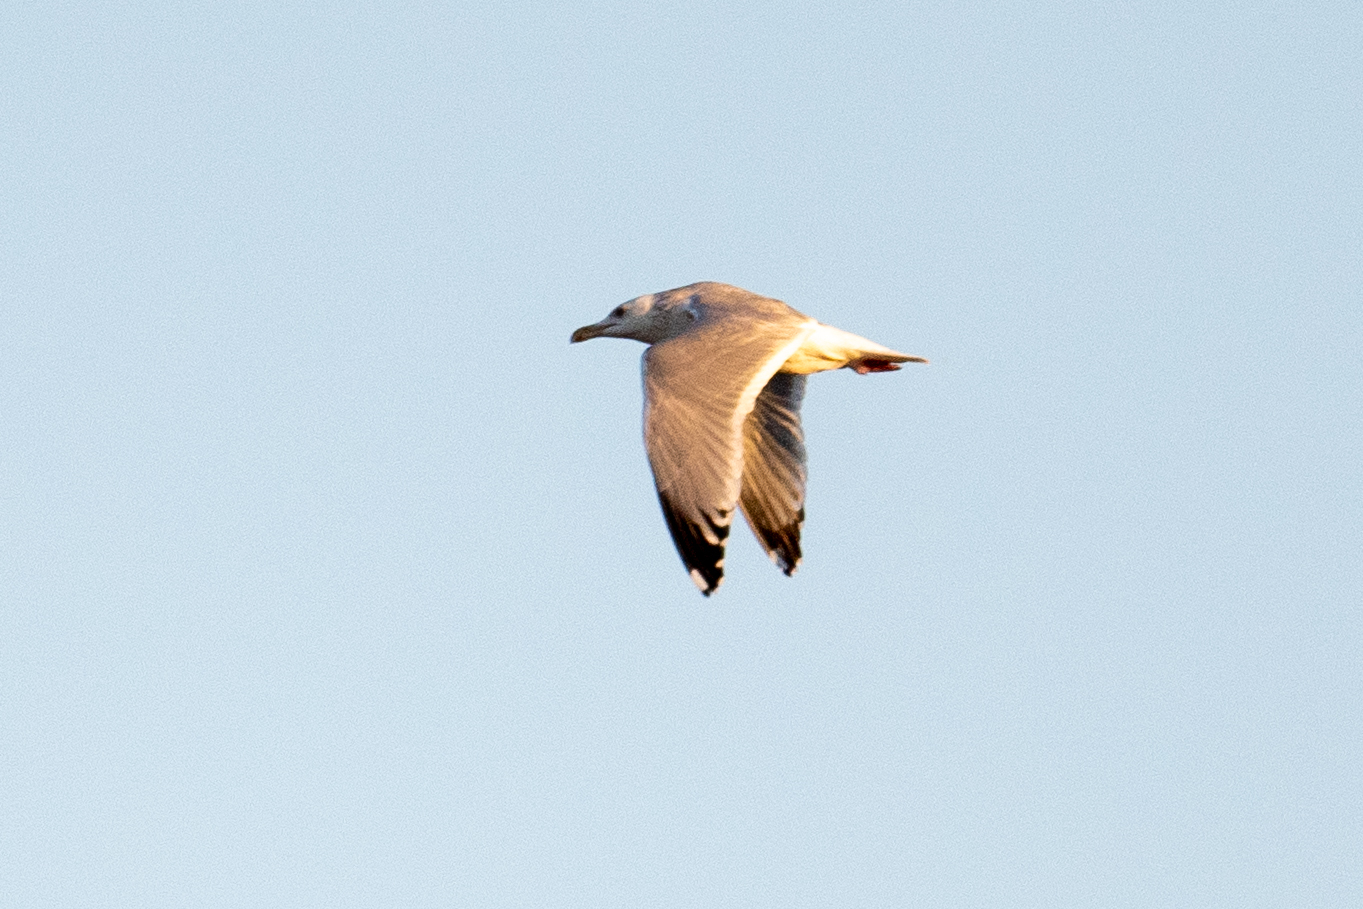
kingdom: Animalia
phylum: Chordata
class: Aves
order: Charadriiformes
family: Laridae
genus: Larus
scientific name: Larus
